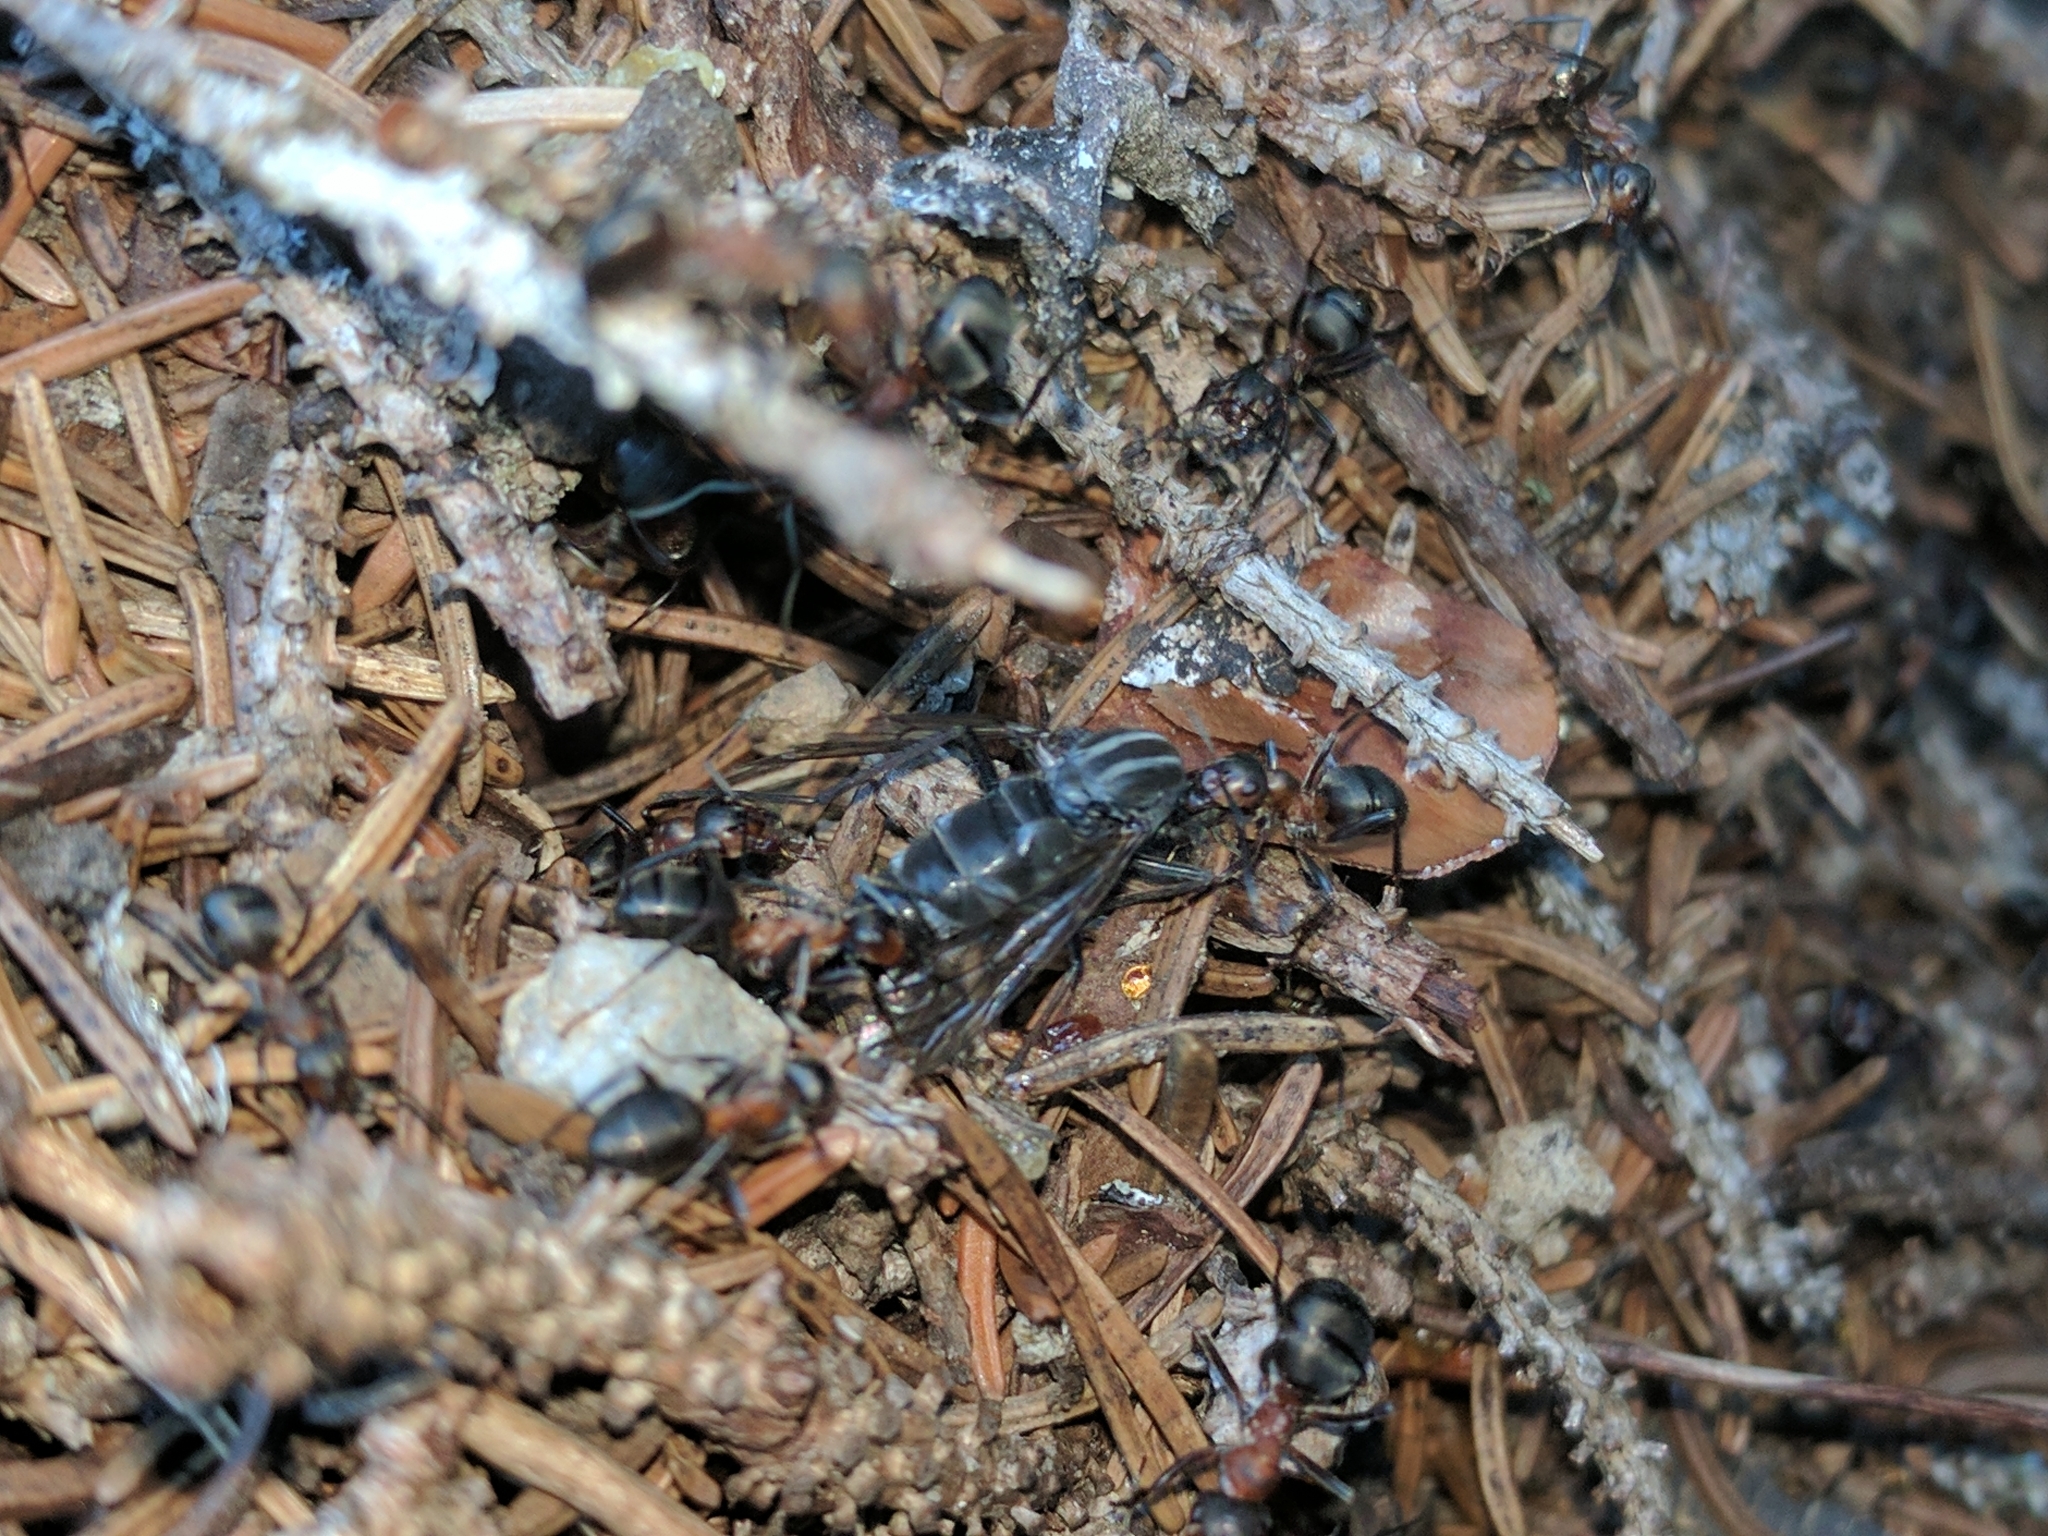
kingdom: Animalia
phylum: Arthropoda
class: Insecta
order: Hymenoptera
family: Formicidae
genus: Formica
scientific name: Formica lugubris
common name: Sinister mound ant
